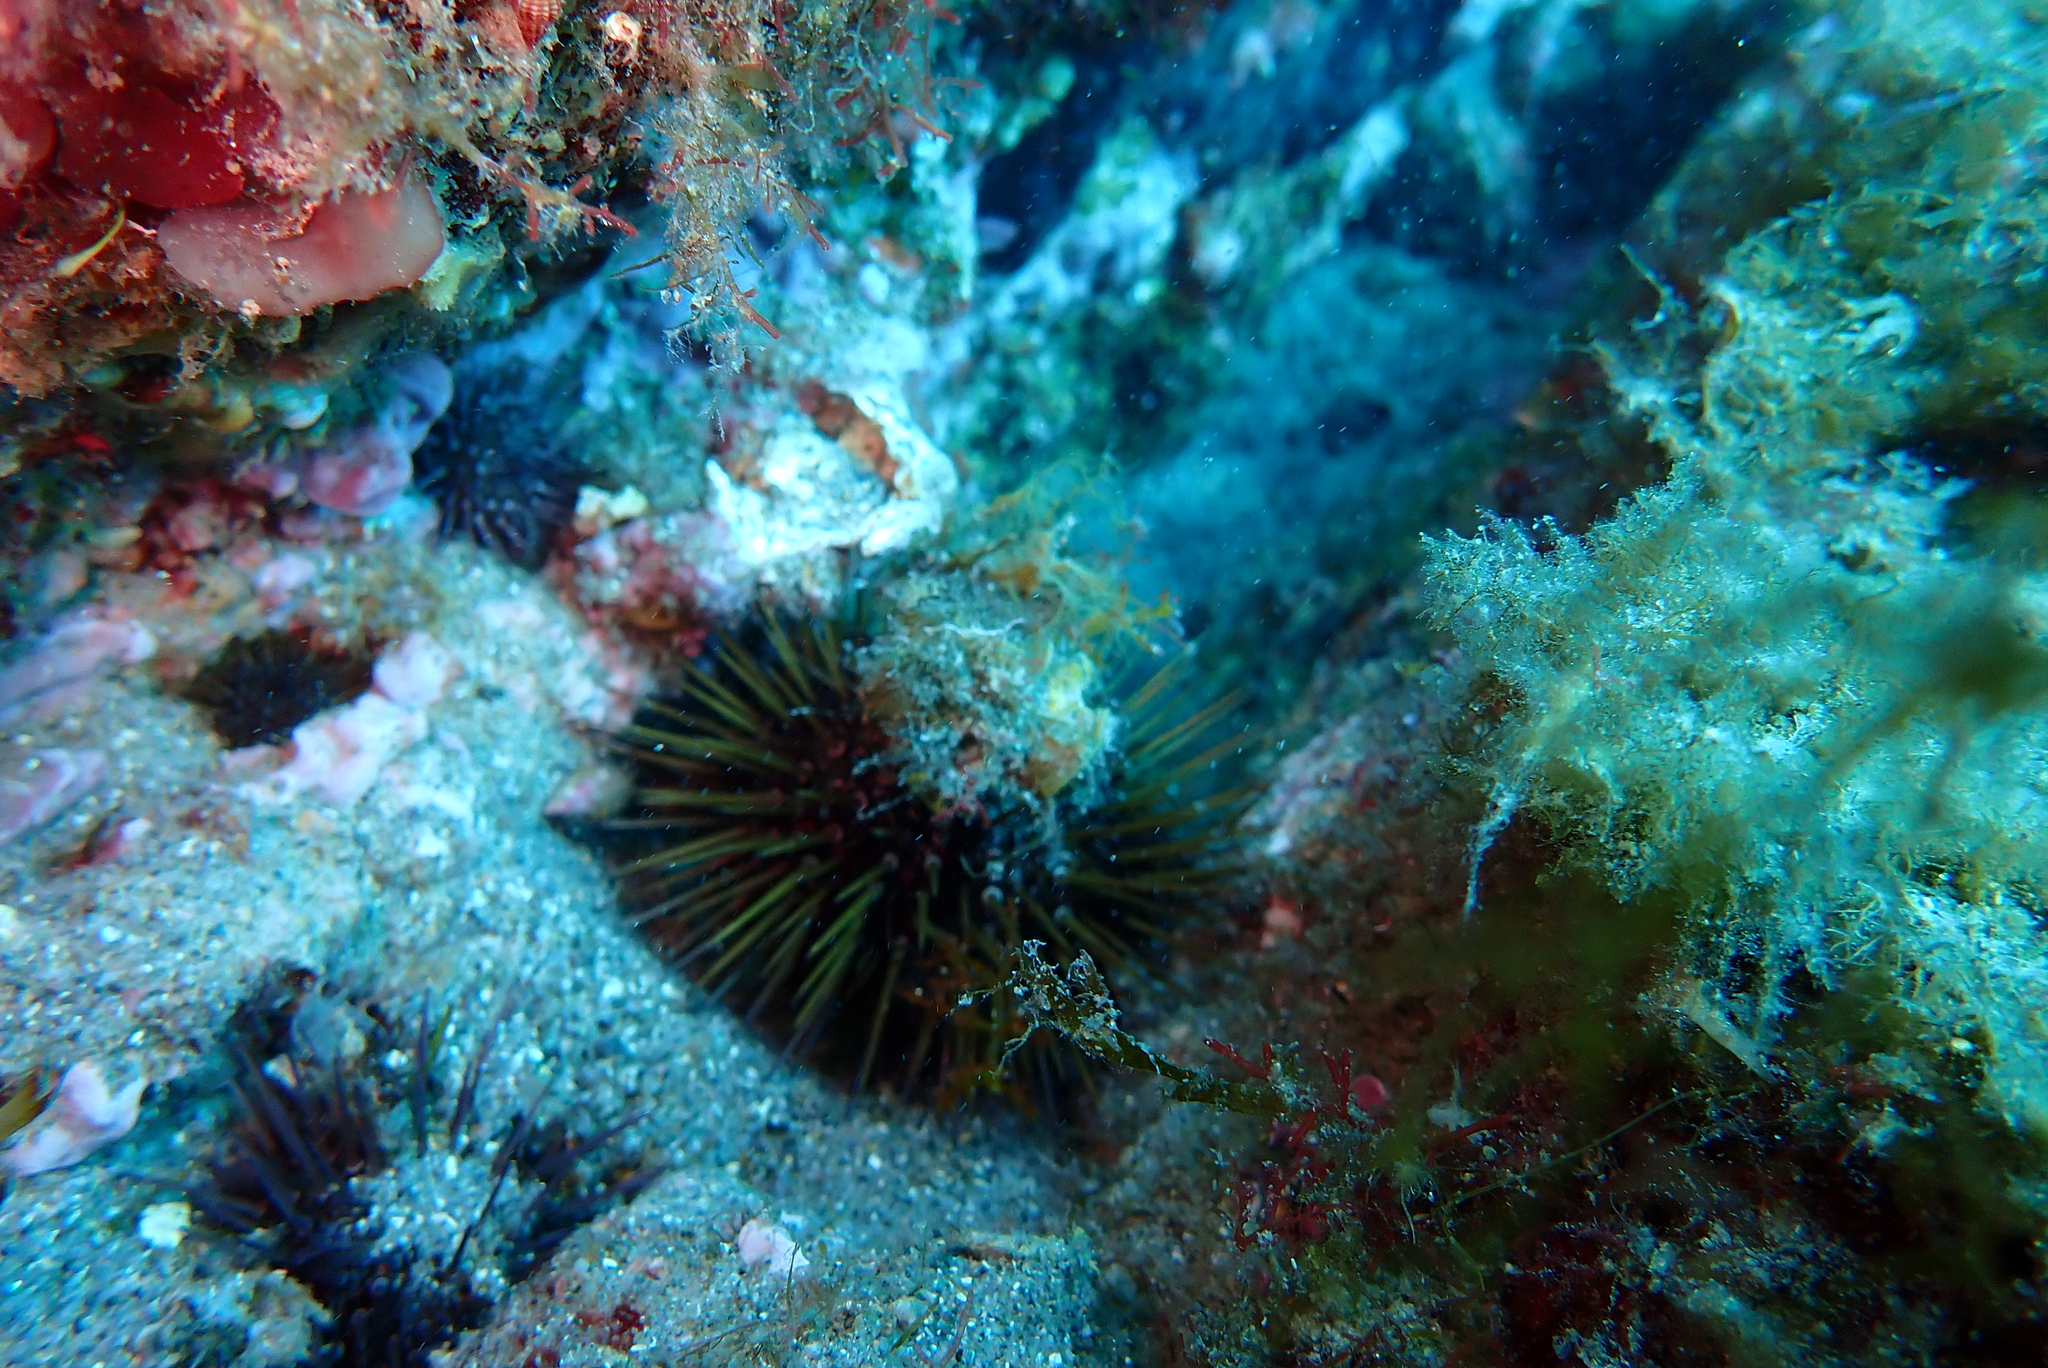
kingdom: Animalia
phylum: Echinodermata
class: Echinoidea
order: Camarodonta
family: Parechinidae
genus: Paracentrotus
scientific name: Paracentrotus lividus
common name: Purple sea urchin
